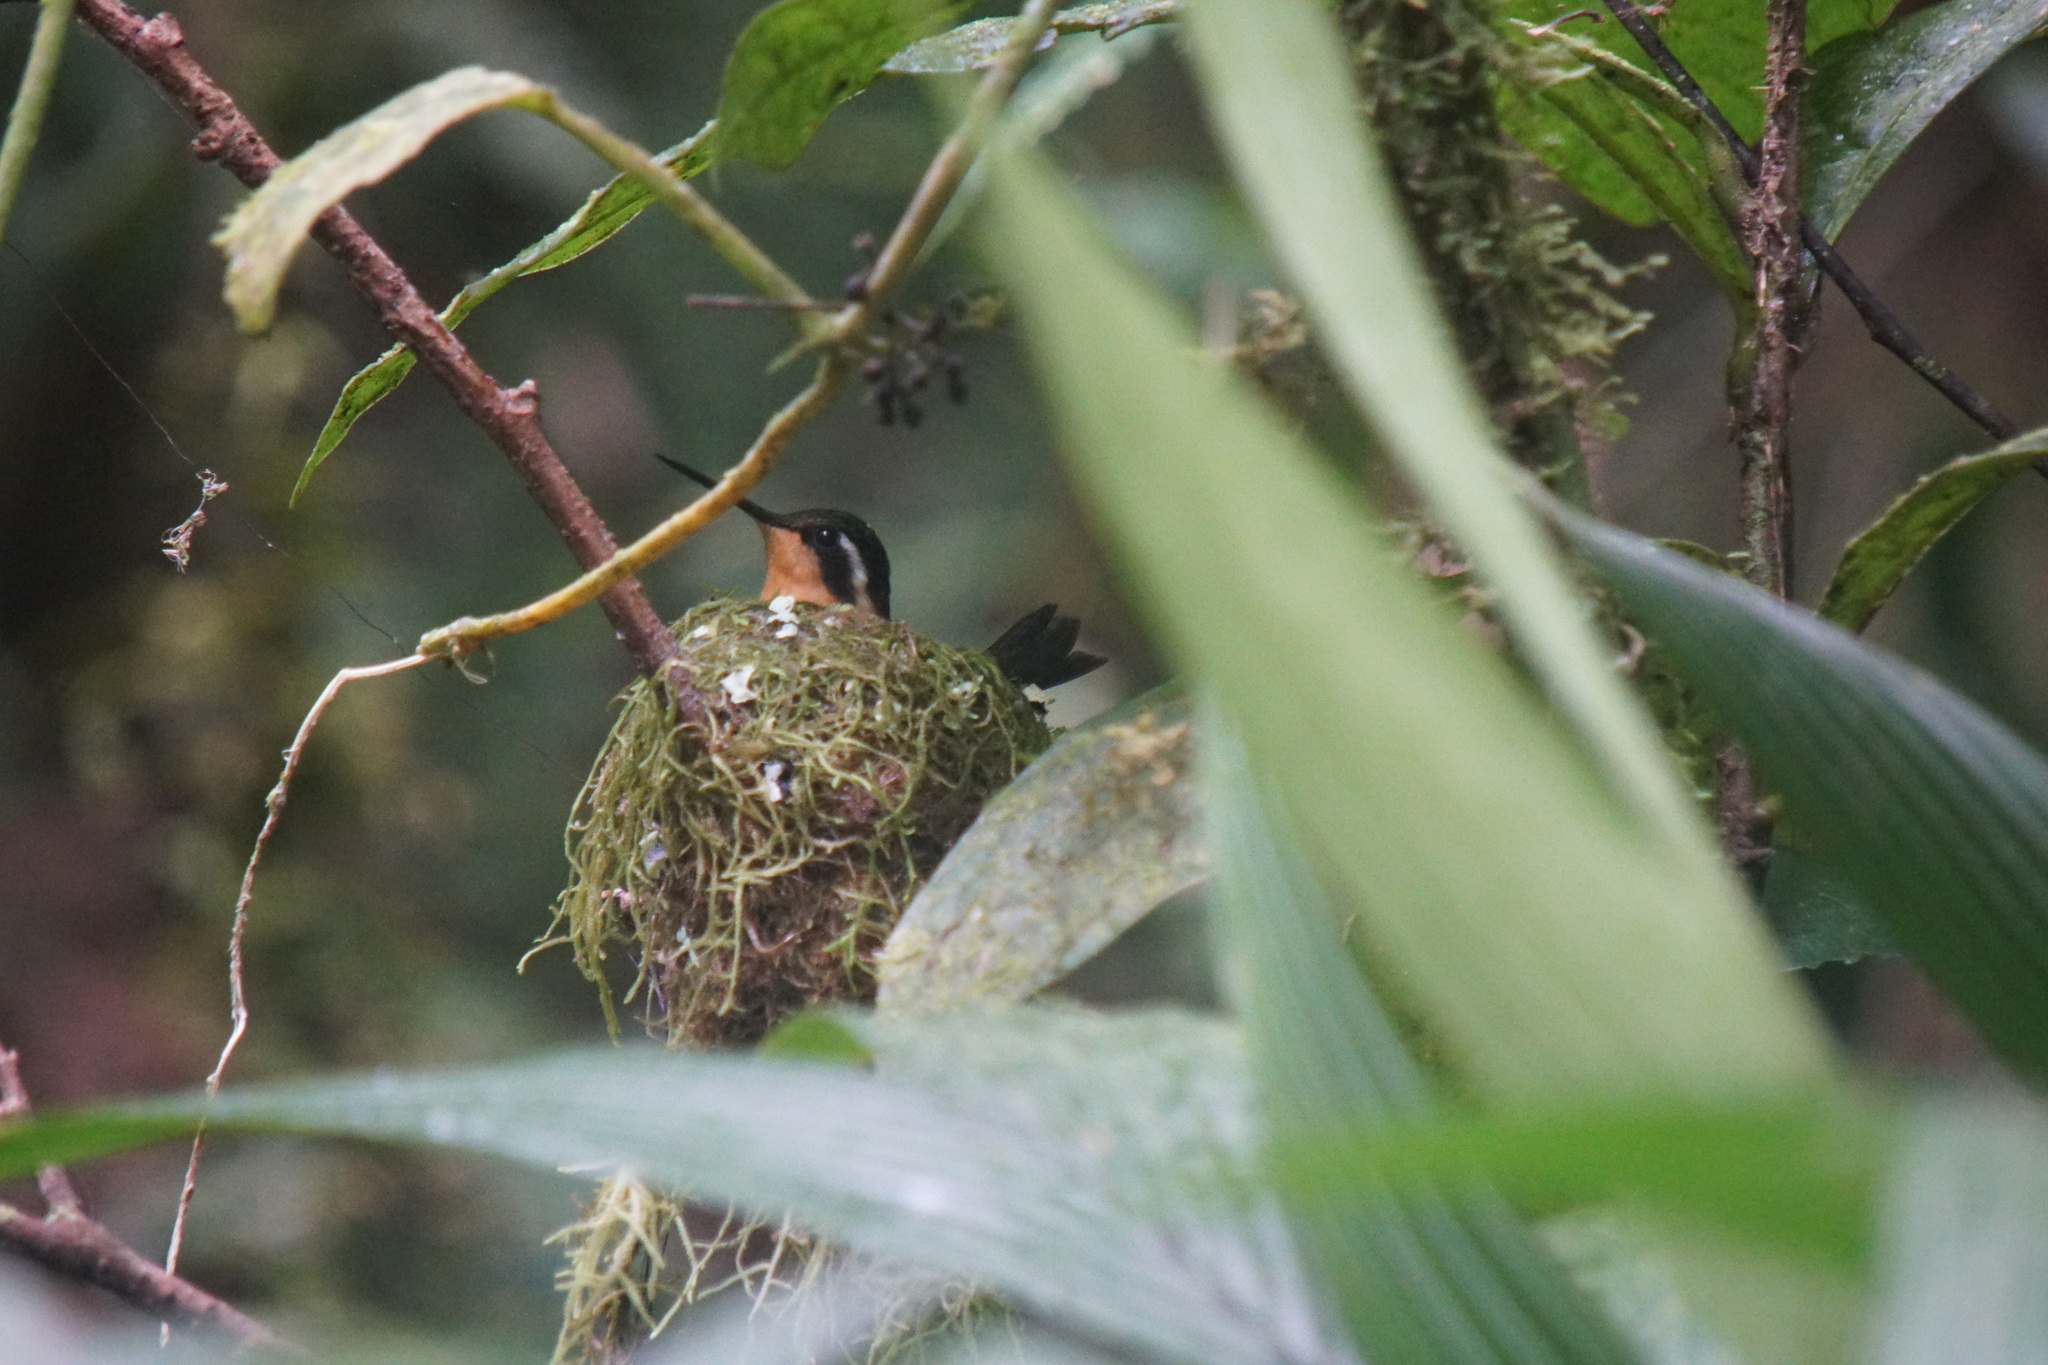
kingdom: Animalia
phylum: Chordata
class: Aves
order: Apodiformes
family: Trochilidae
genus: Lampornis
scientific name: Lampornis calolaemus
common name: Purple-throated mountain-gem
